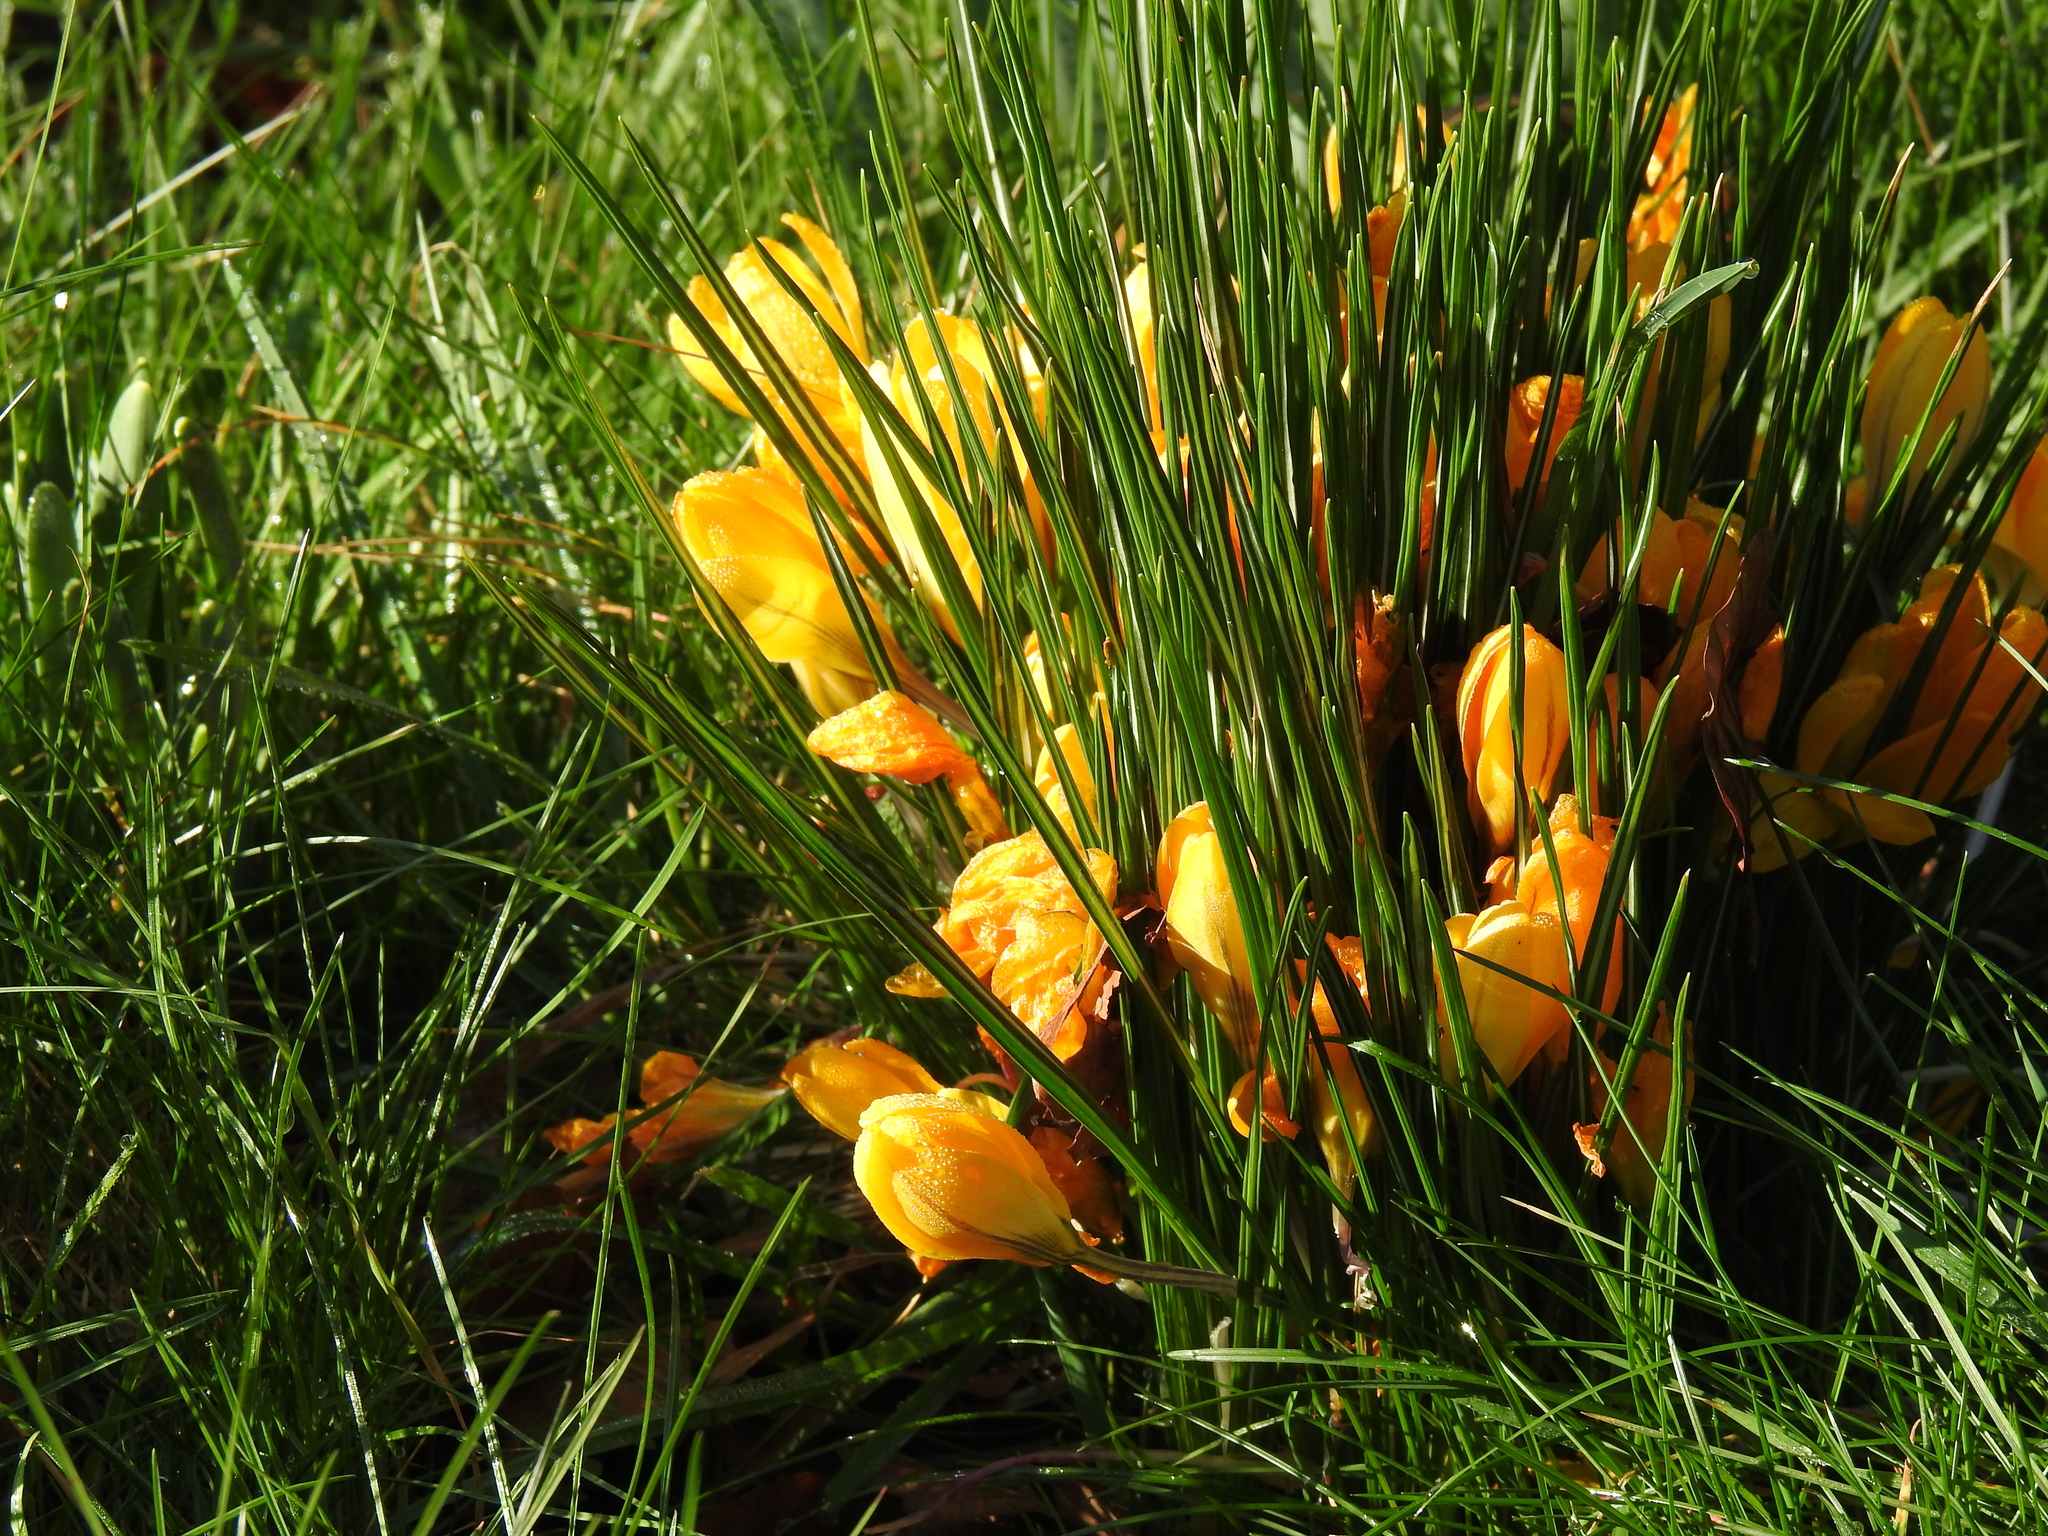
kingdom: Plantae
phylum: Tracheophyta
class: Liliopsida
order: Asparagales
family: Iridaceae
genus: Crocus
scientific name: Crocus luteus
